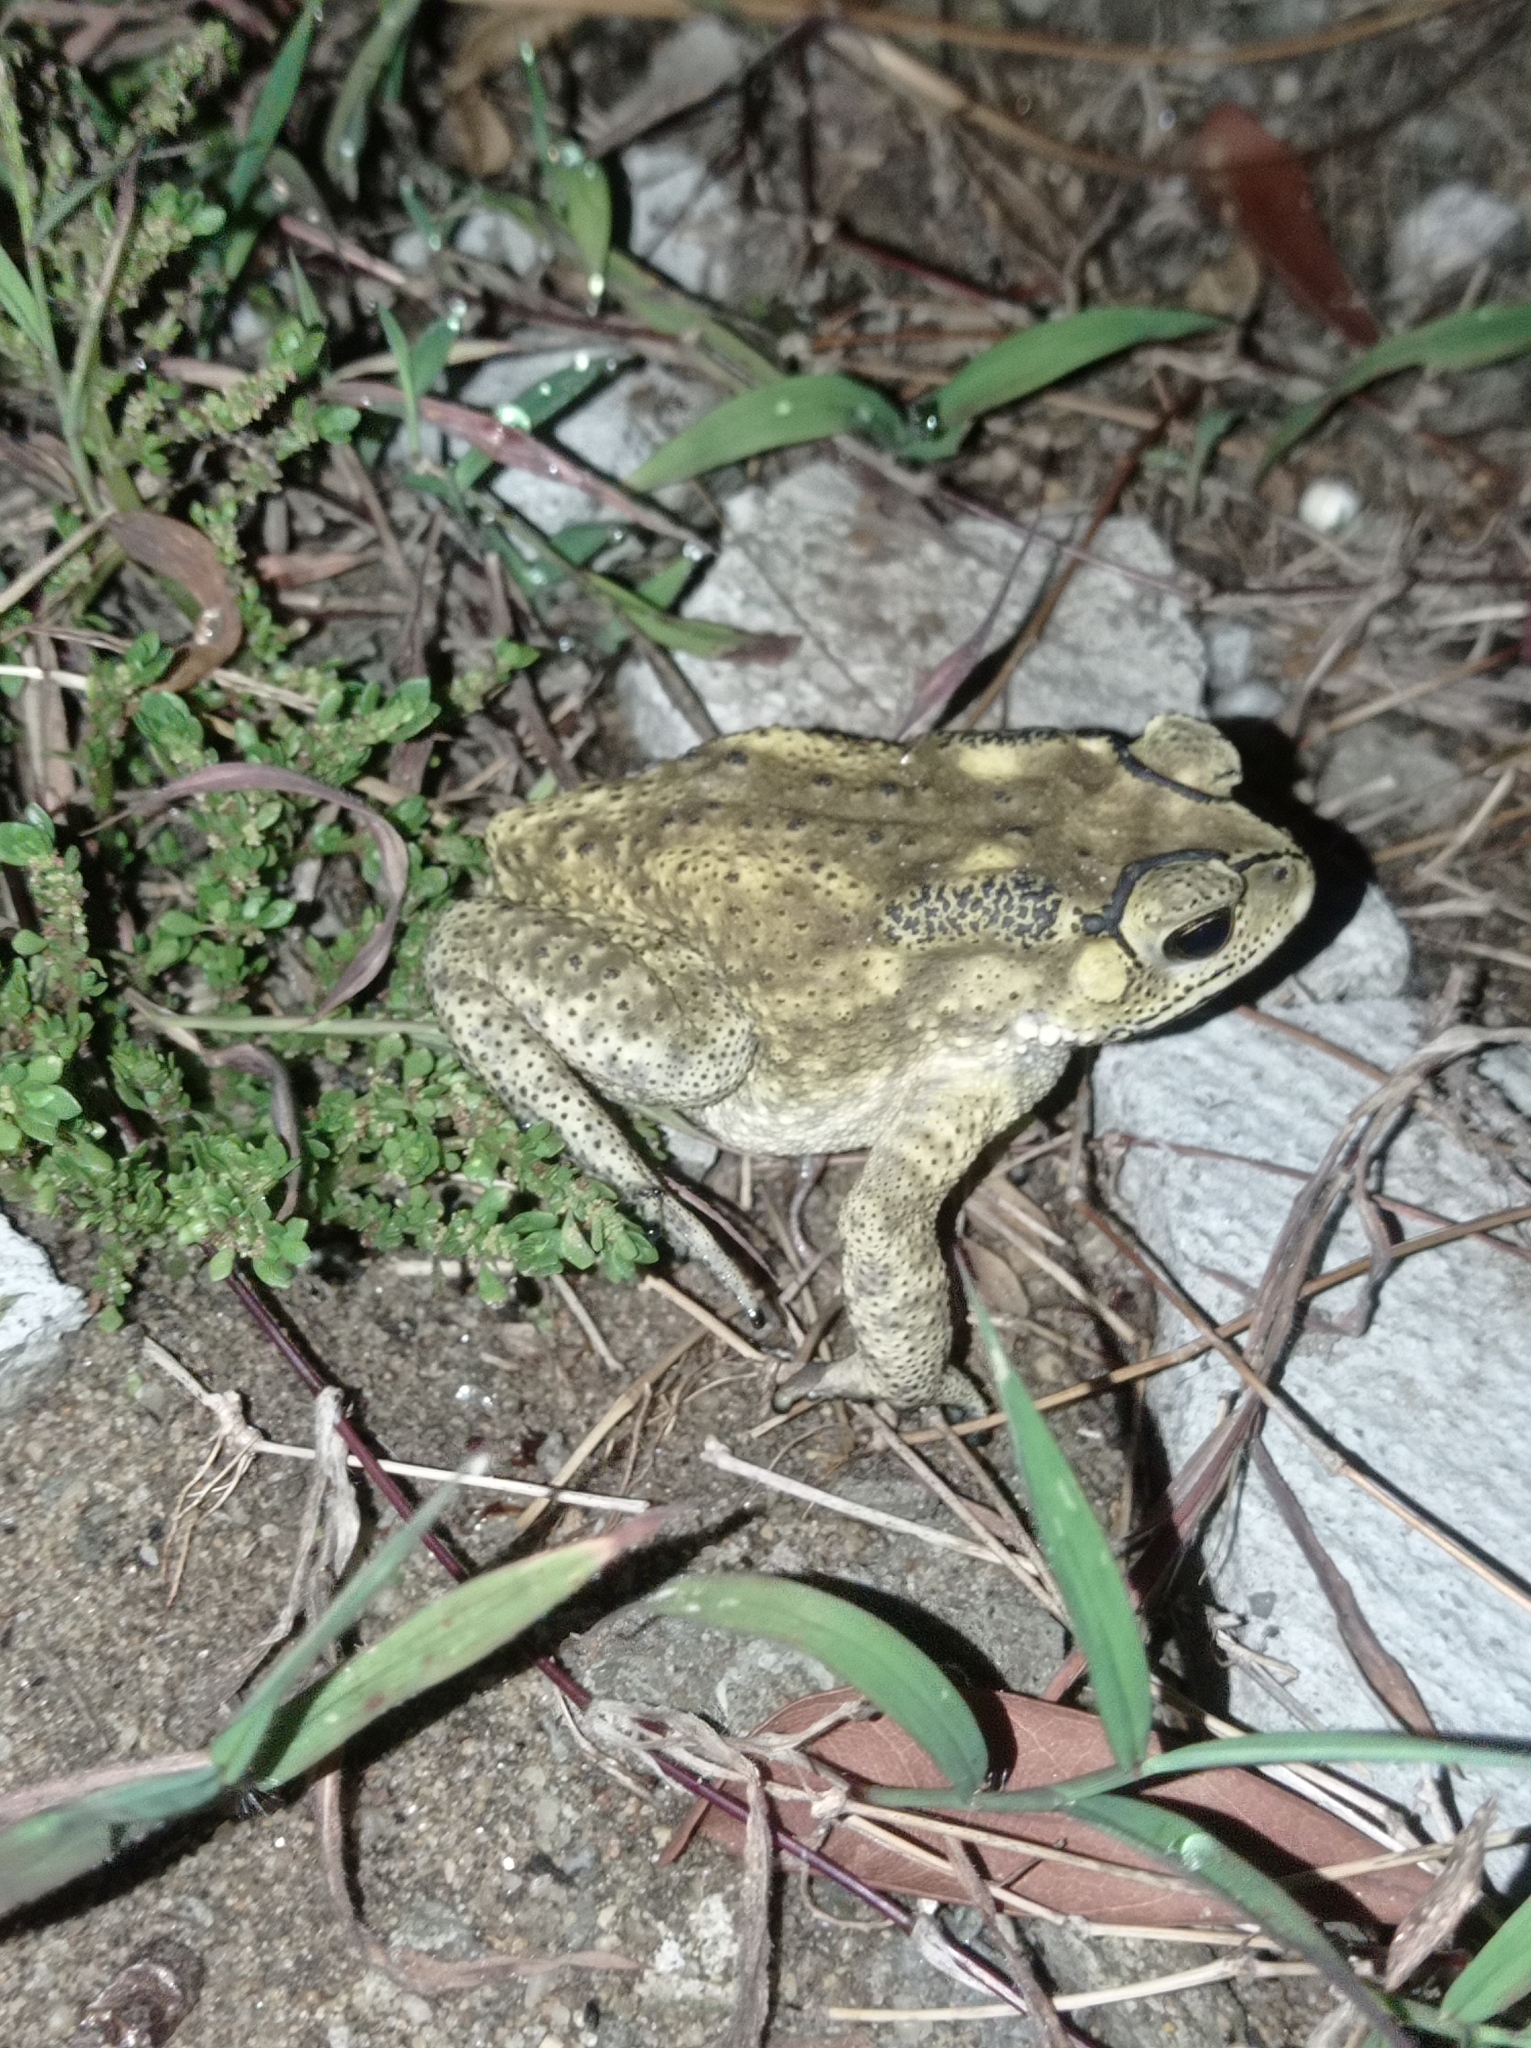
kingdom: Animalia
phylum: Chordata
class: Amphibia
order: Anura
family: Bufonidae
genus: Duttaphrynus
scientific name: Duttaphrynus melanostictus
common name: Common sunda toad
